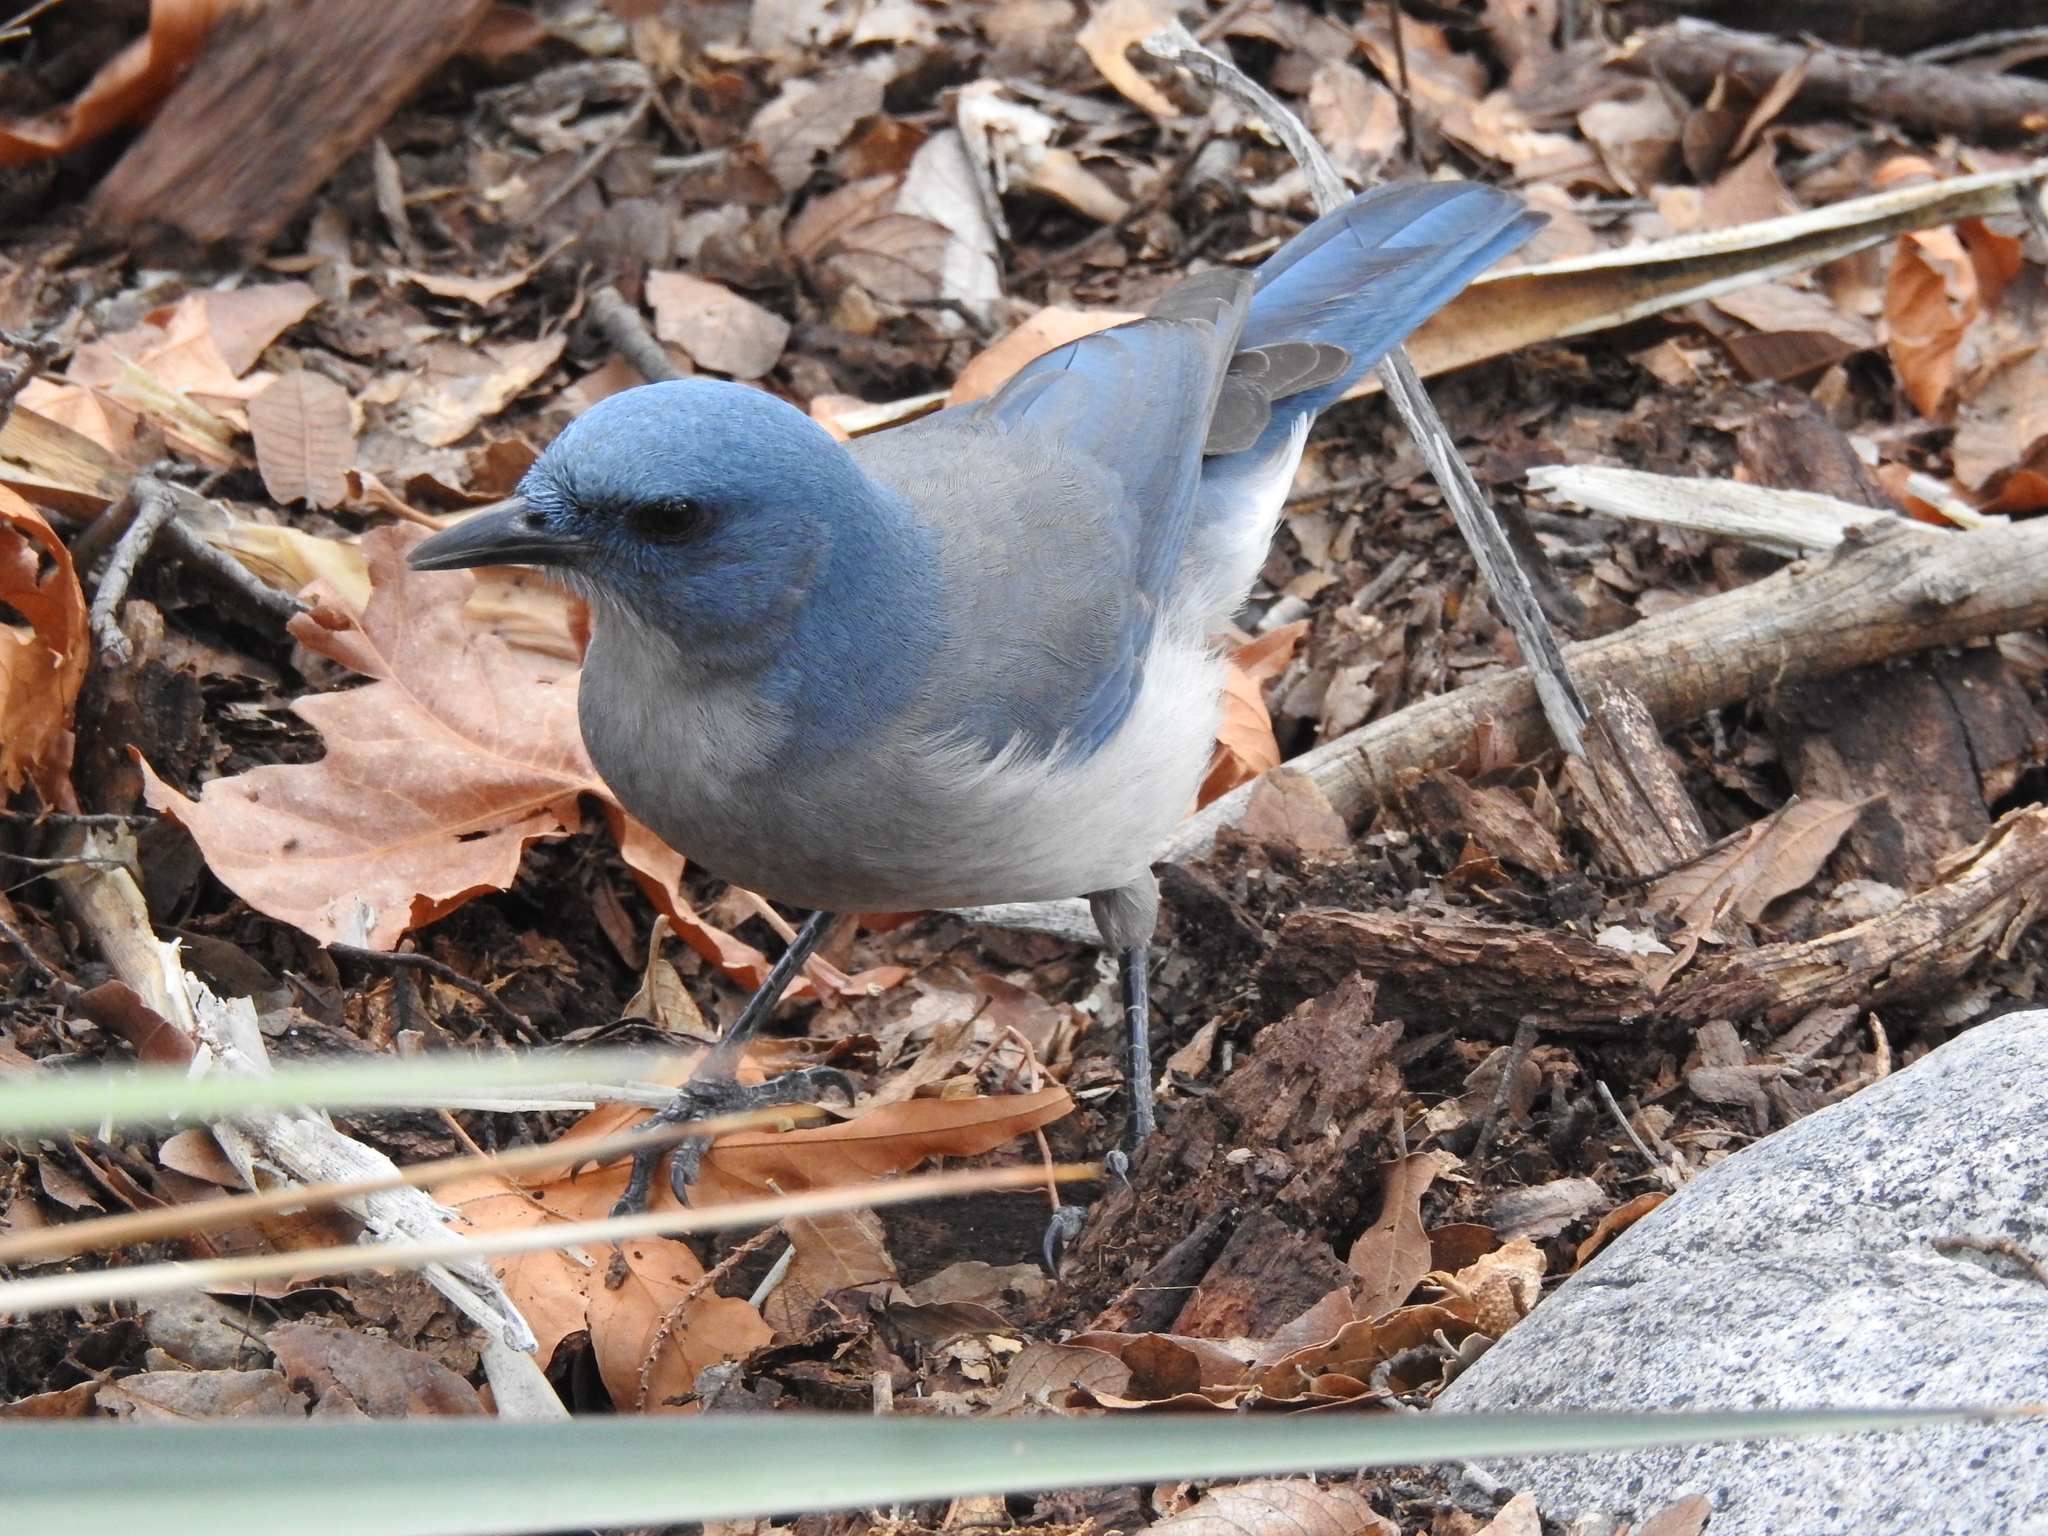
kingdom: Animalia
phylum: Chordata
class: Aves
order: Passeriformes
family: Corvidae
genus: Aphelocoma
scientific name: Aphelocoma wollweberi
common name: Mexican jay
